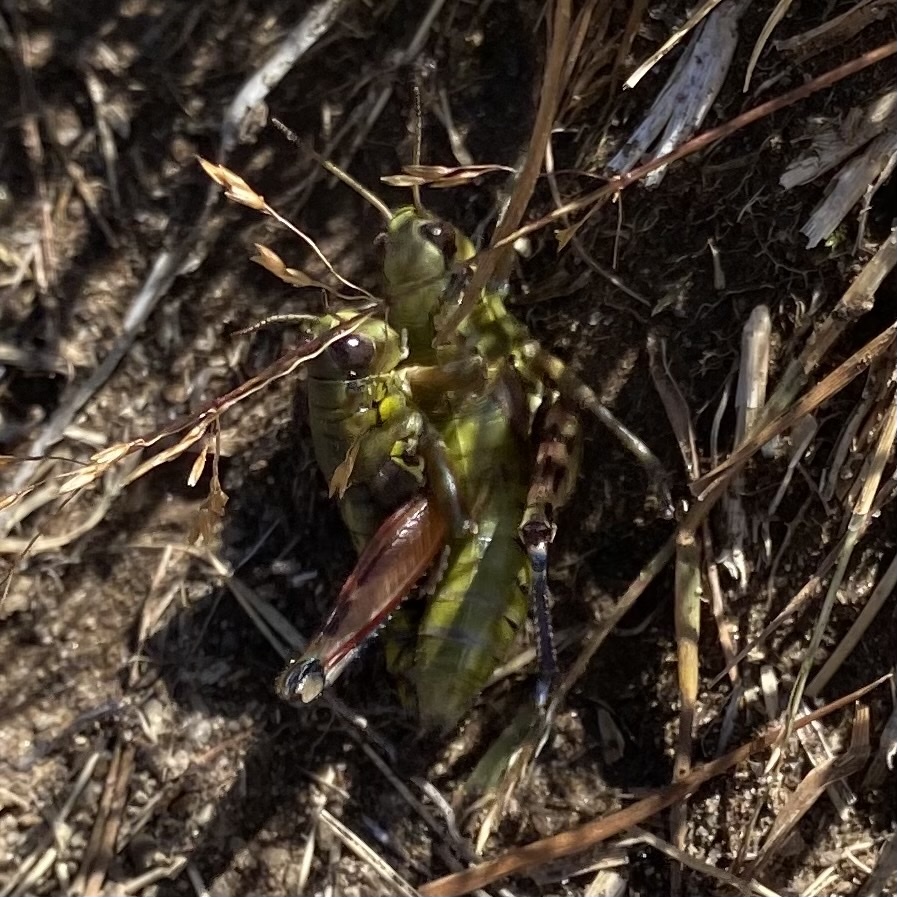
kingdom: Animalia
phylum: Arthropoda
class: Insecta
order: Orthoptera
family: Acrididae
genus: Podisma
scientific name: Podisma emiliae
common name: Emilia mountain grasshopper
